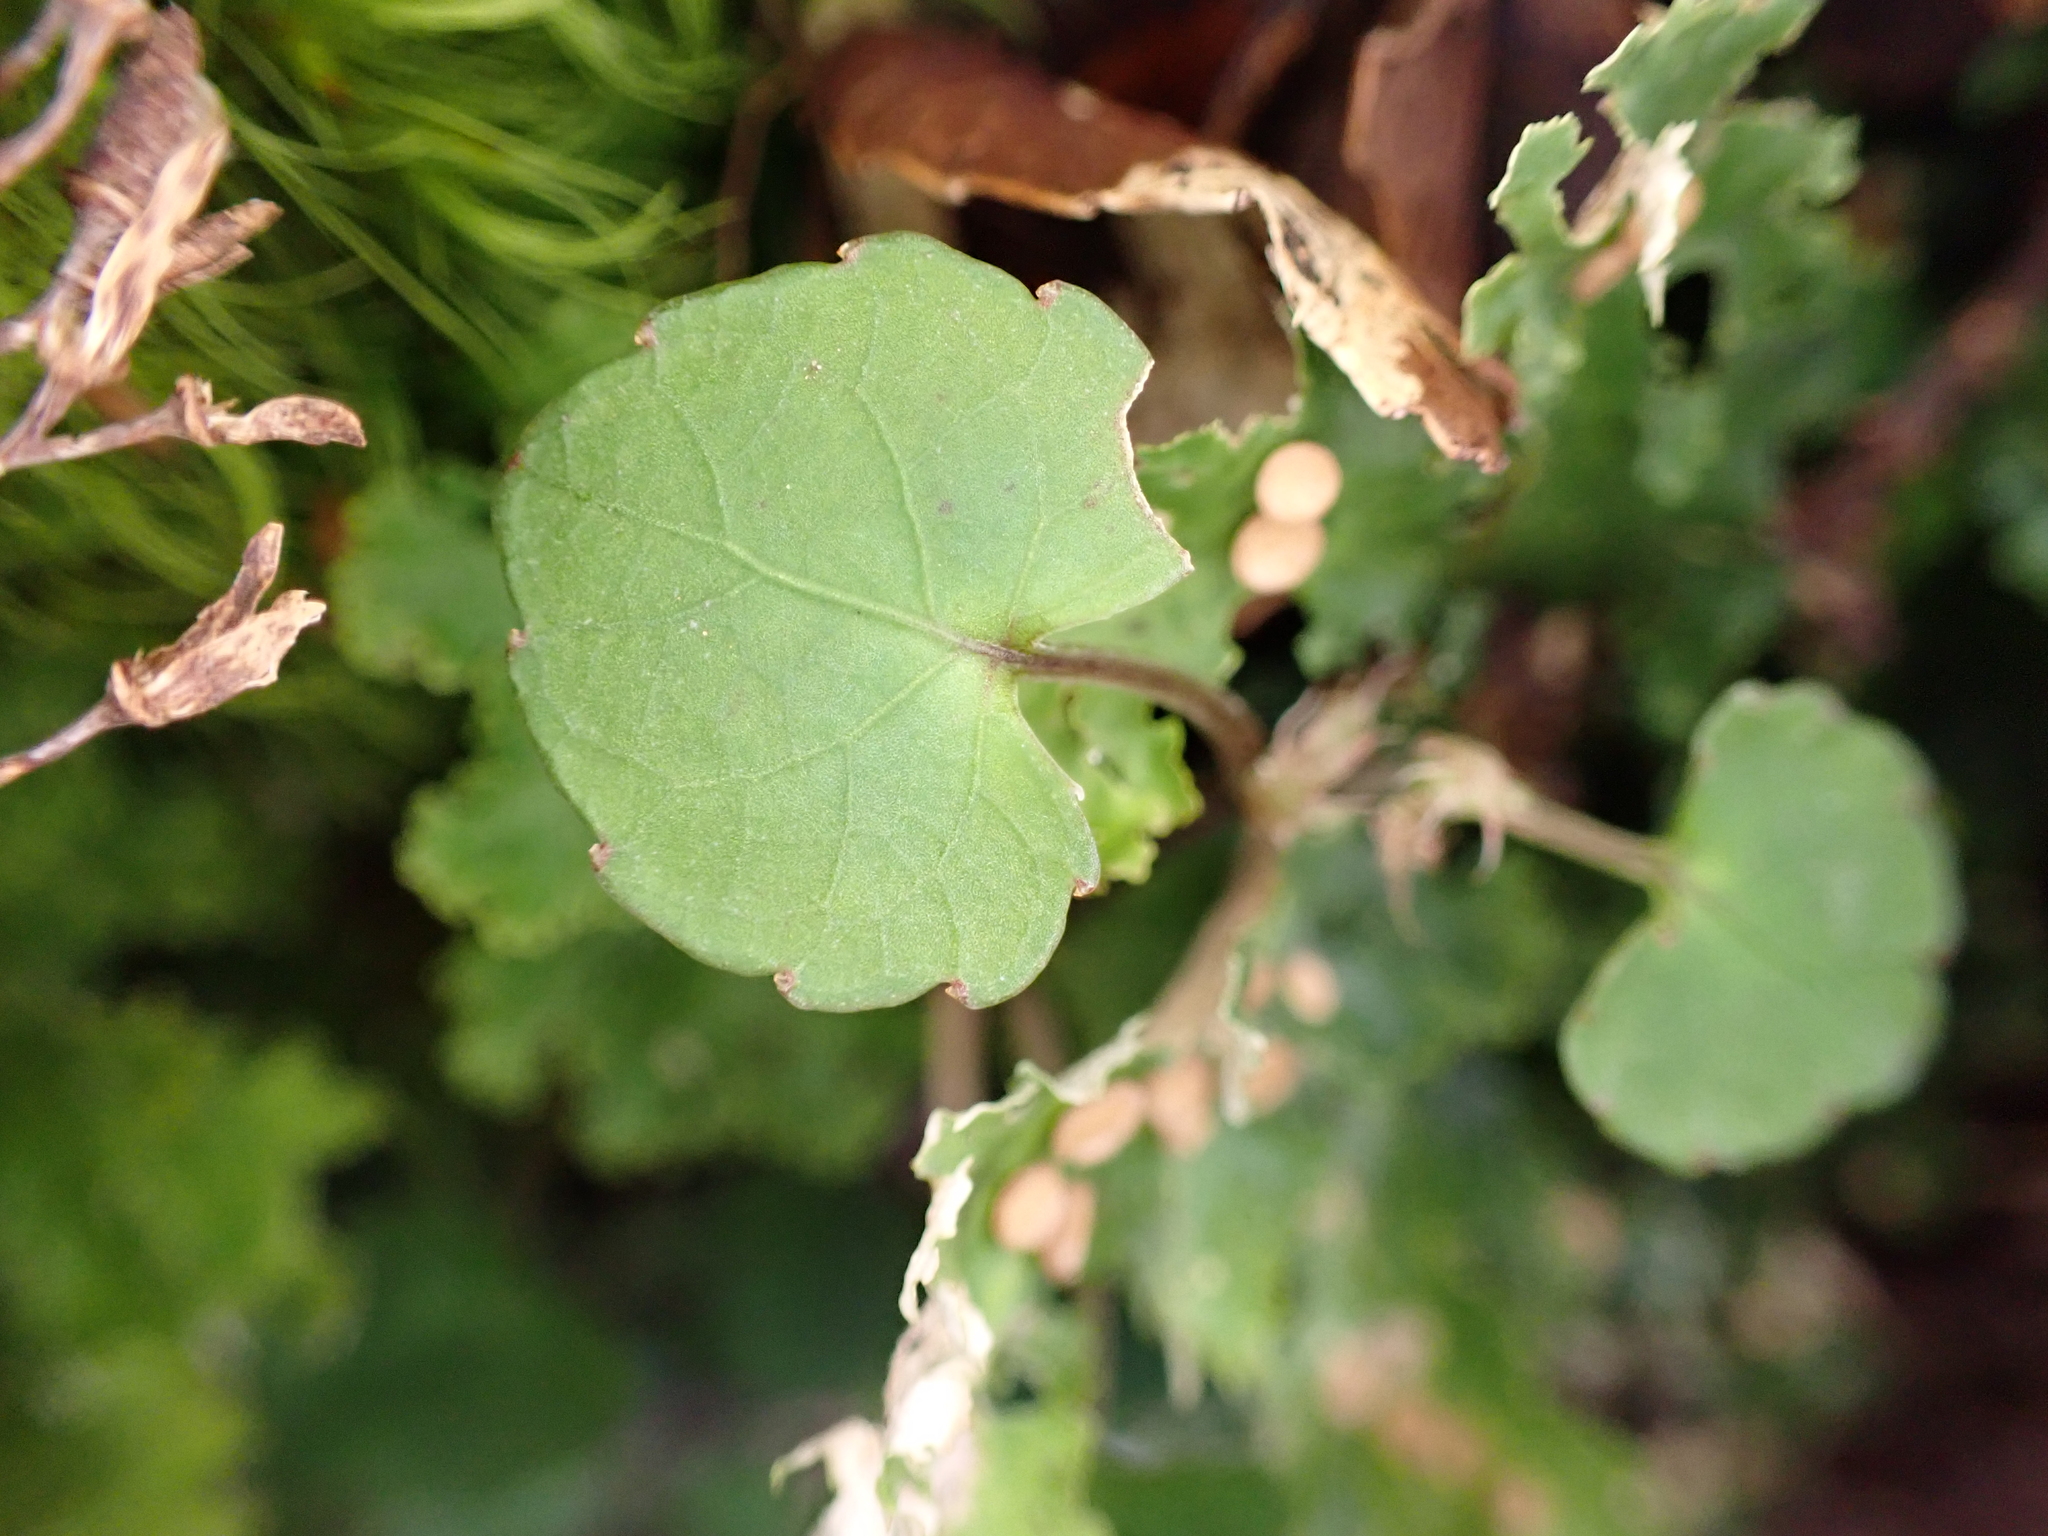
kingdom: Plantae
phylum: Tracheophyta
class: Magnoliopsida
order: Malpighiales
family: Violaceae
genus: Viola
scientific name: Viola filicaulis
